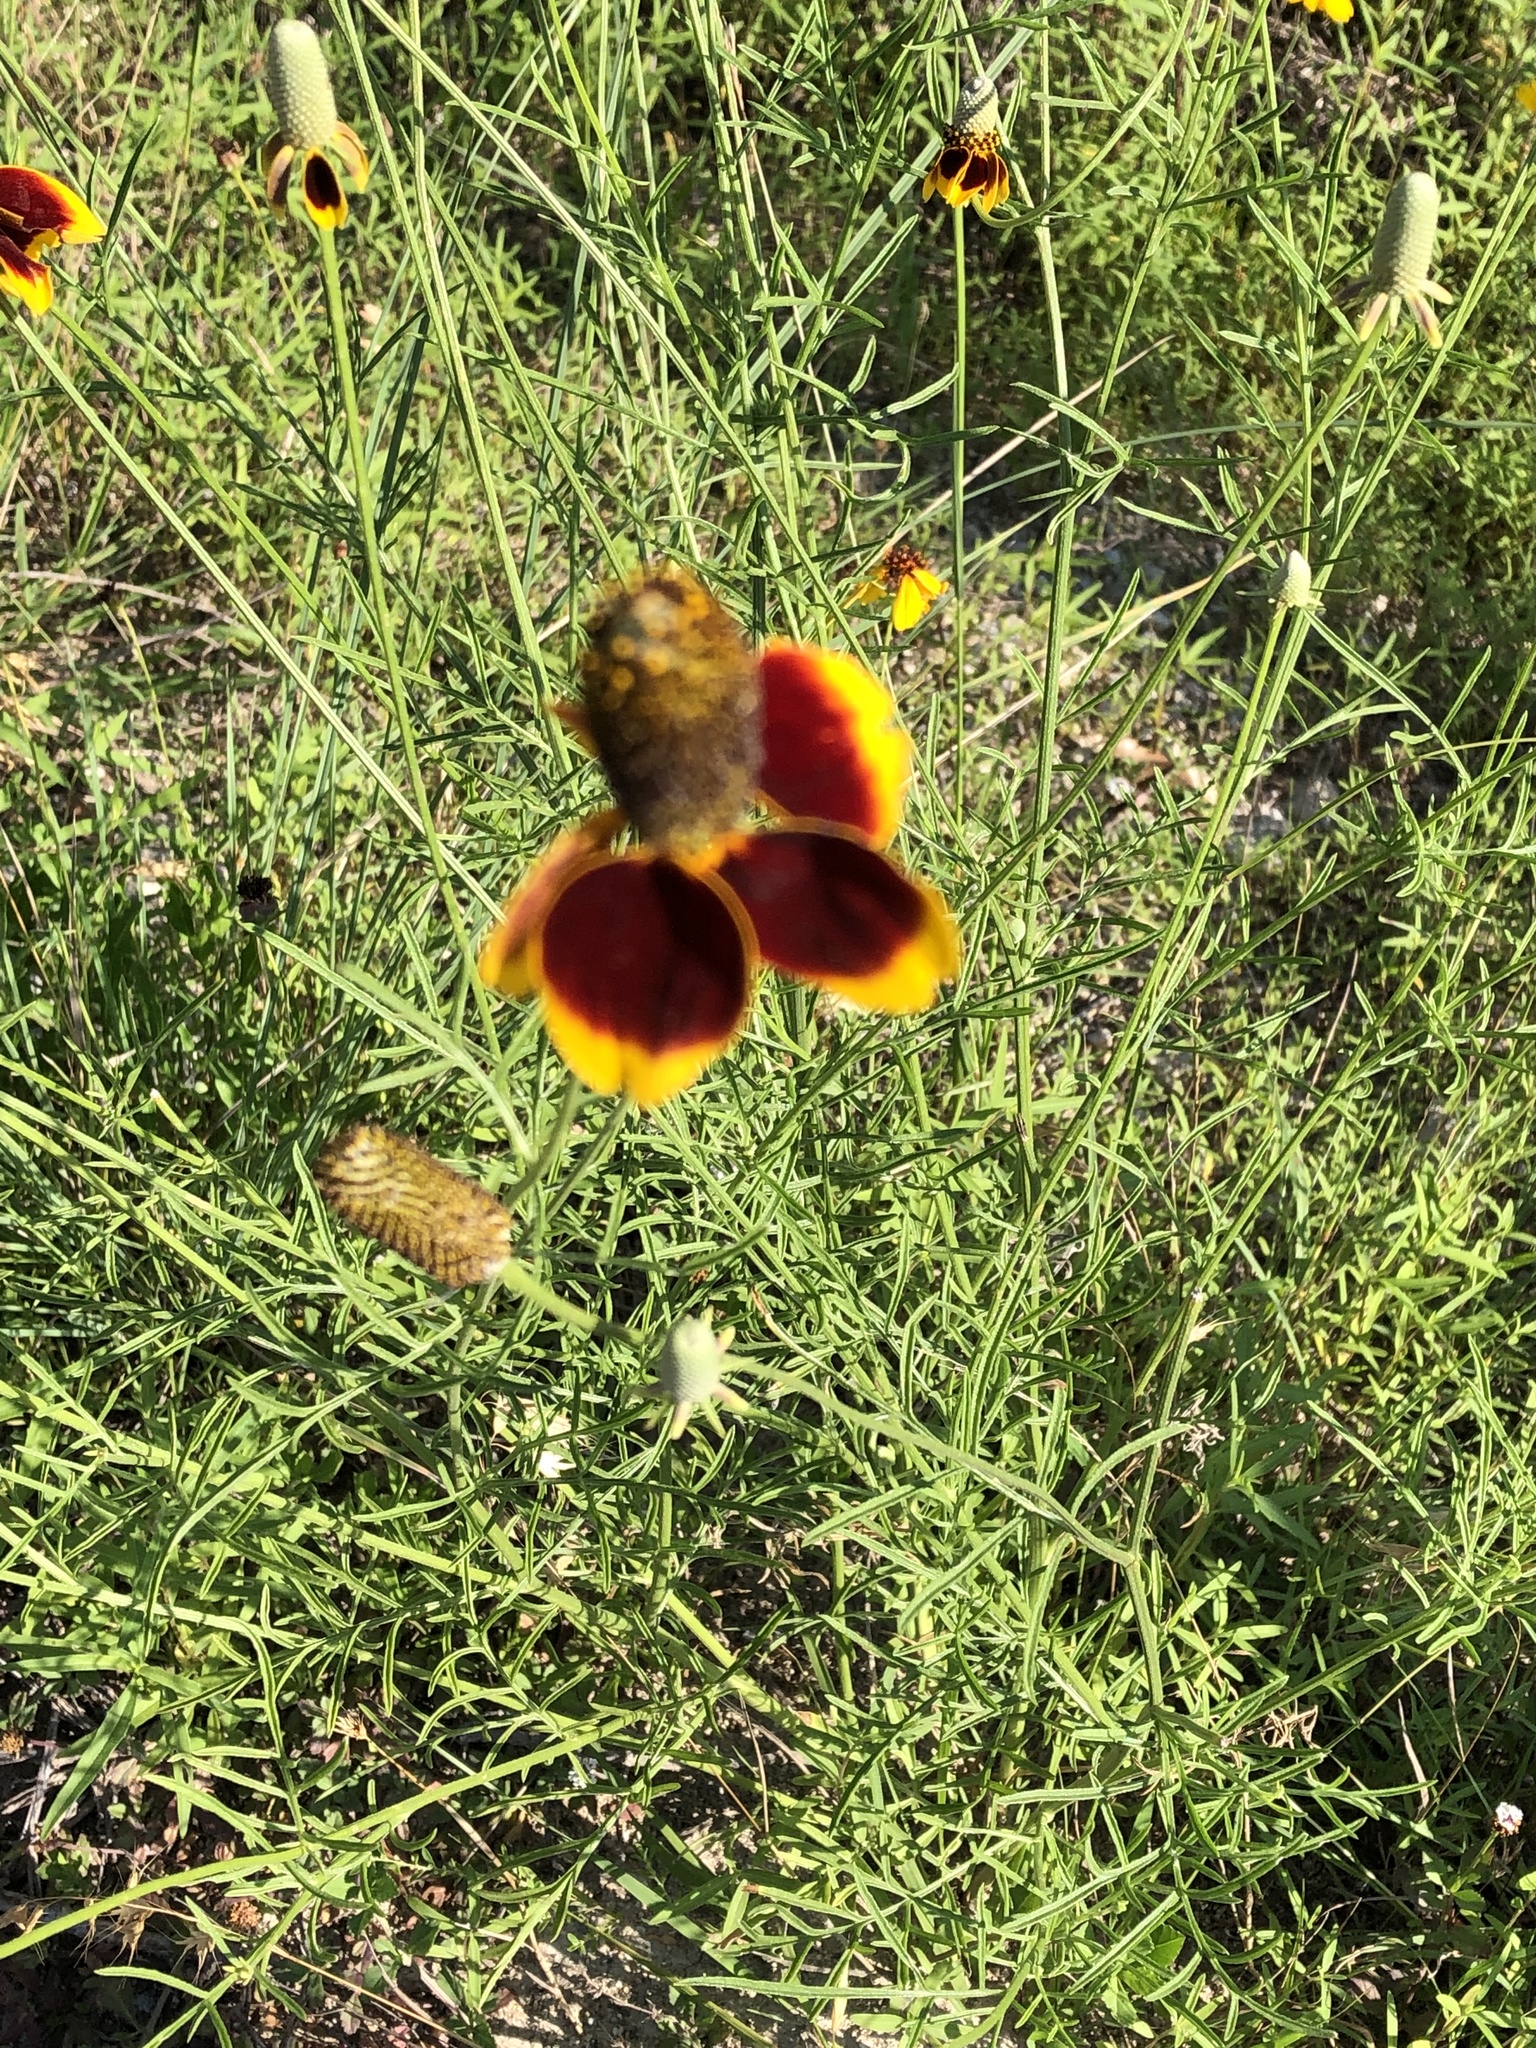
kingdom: Plantae
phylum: Tracheophyta
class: Magnoliopsida
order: Asterales
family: Asteraceae
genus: Ratibida
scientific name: Ratibida columnifera
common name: Prairie coneflower
